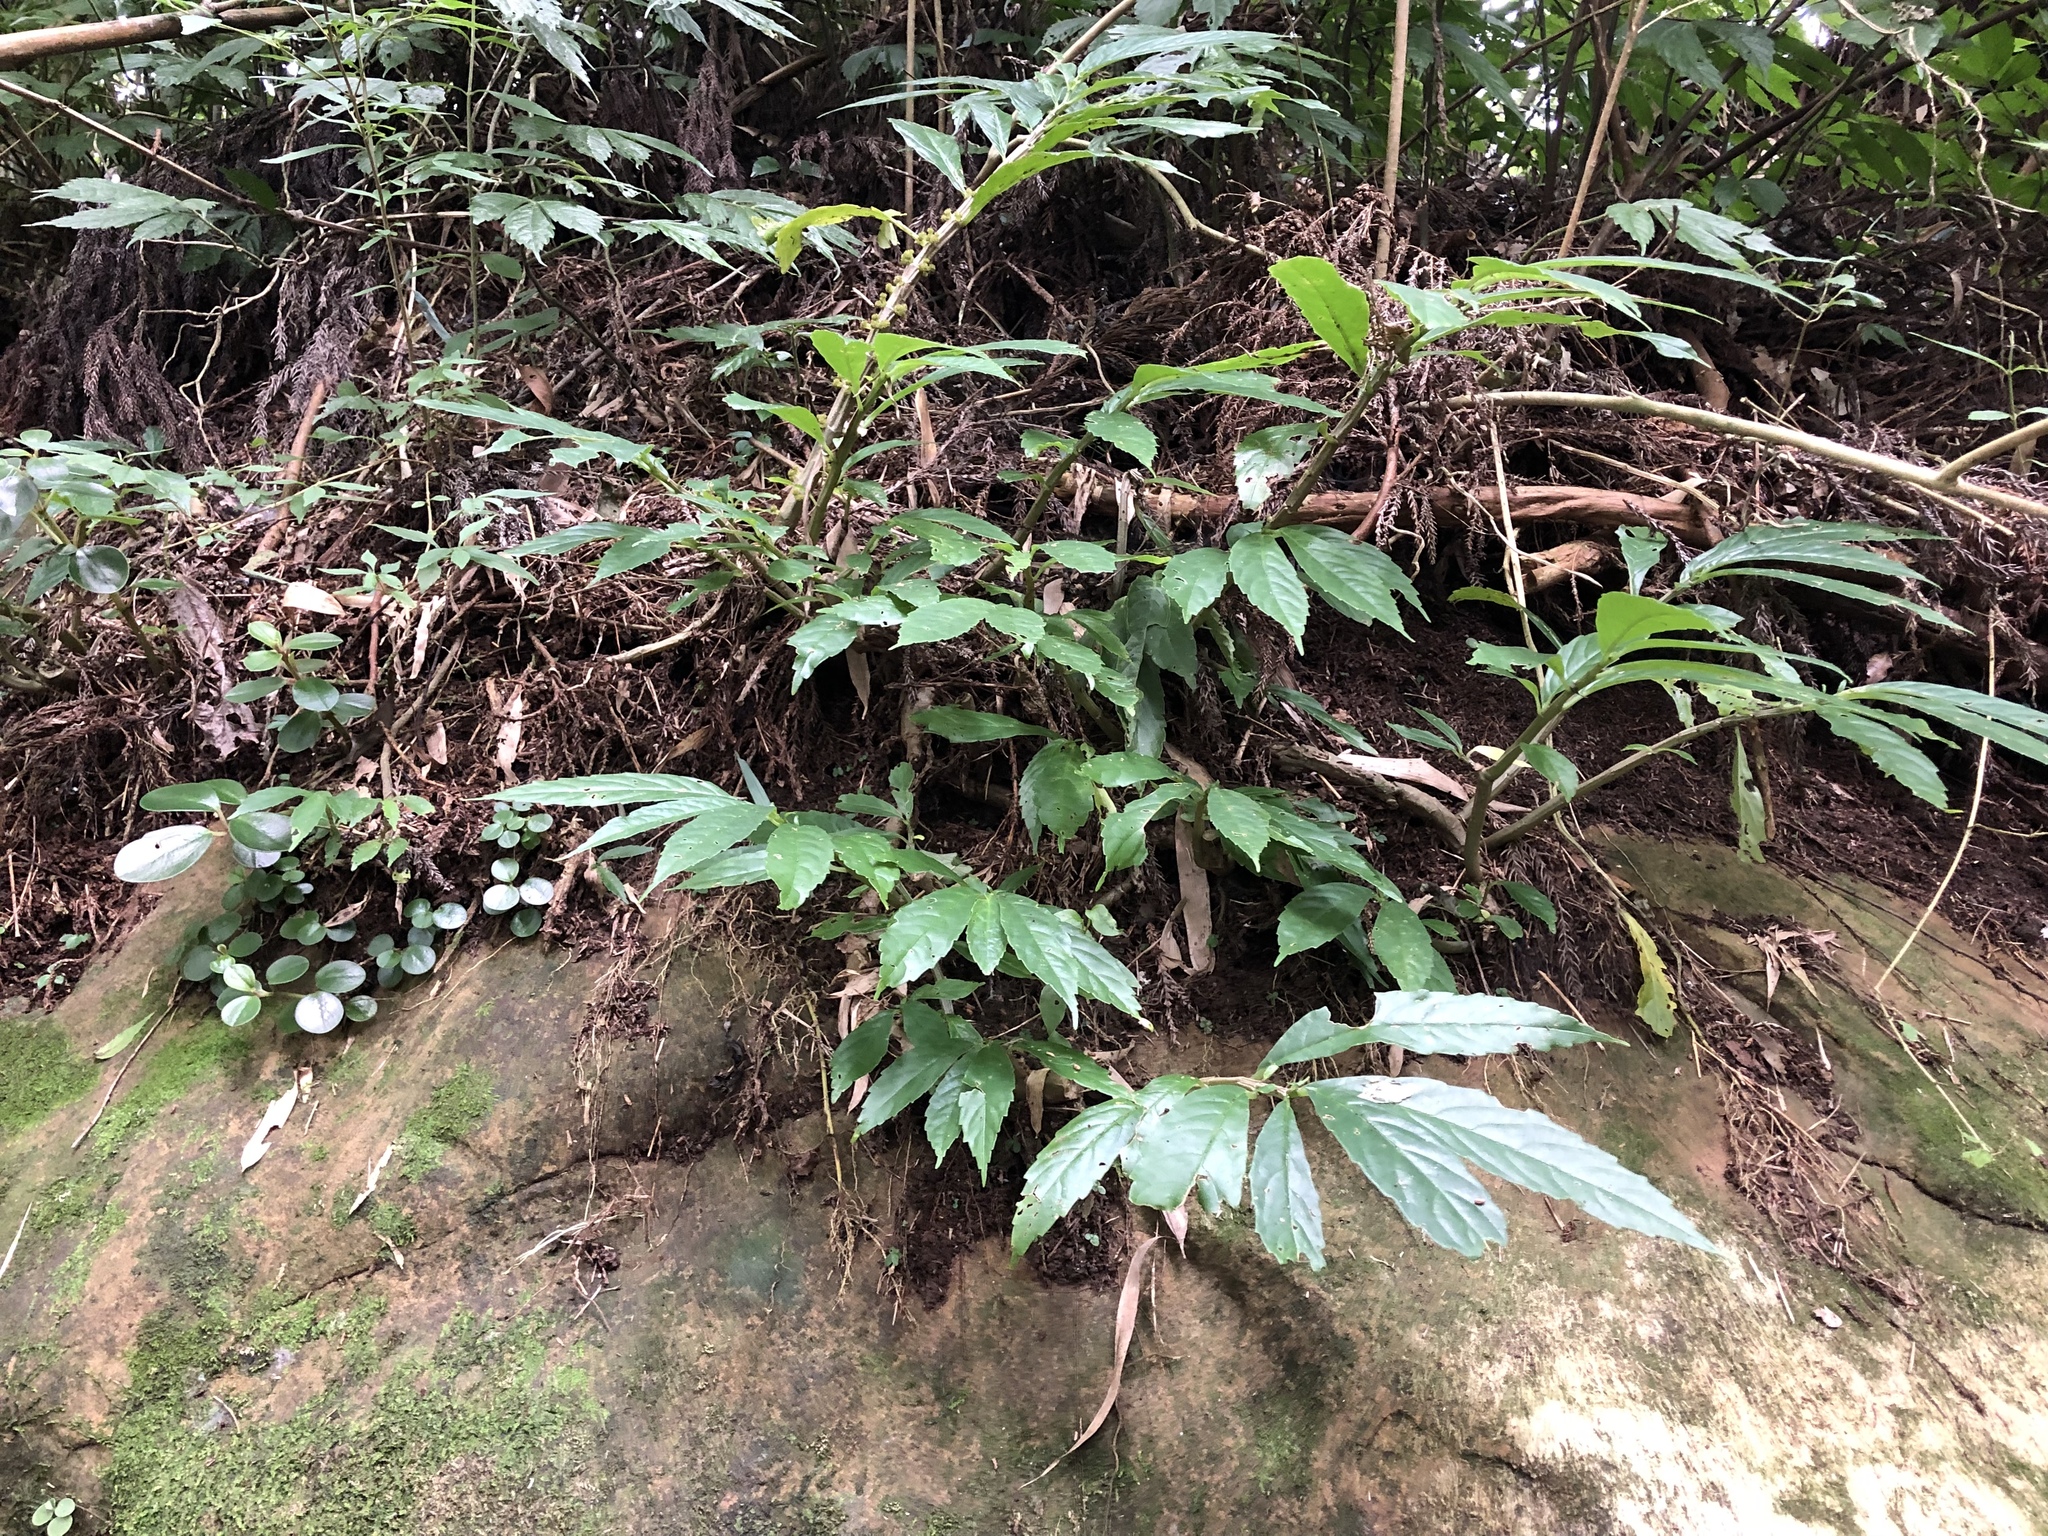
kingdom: Plantae
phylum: Tracheophyta
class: Magnoliopsida
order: Rosales
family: Urticaceae
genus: Procris
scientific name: Procris
